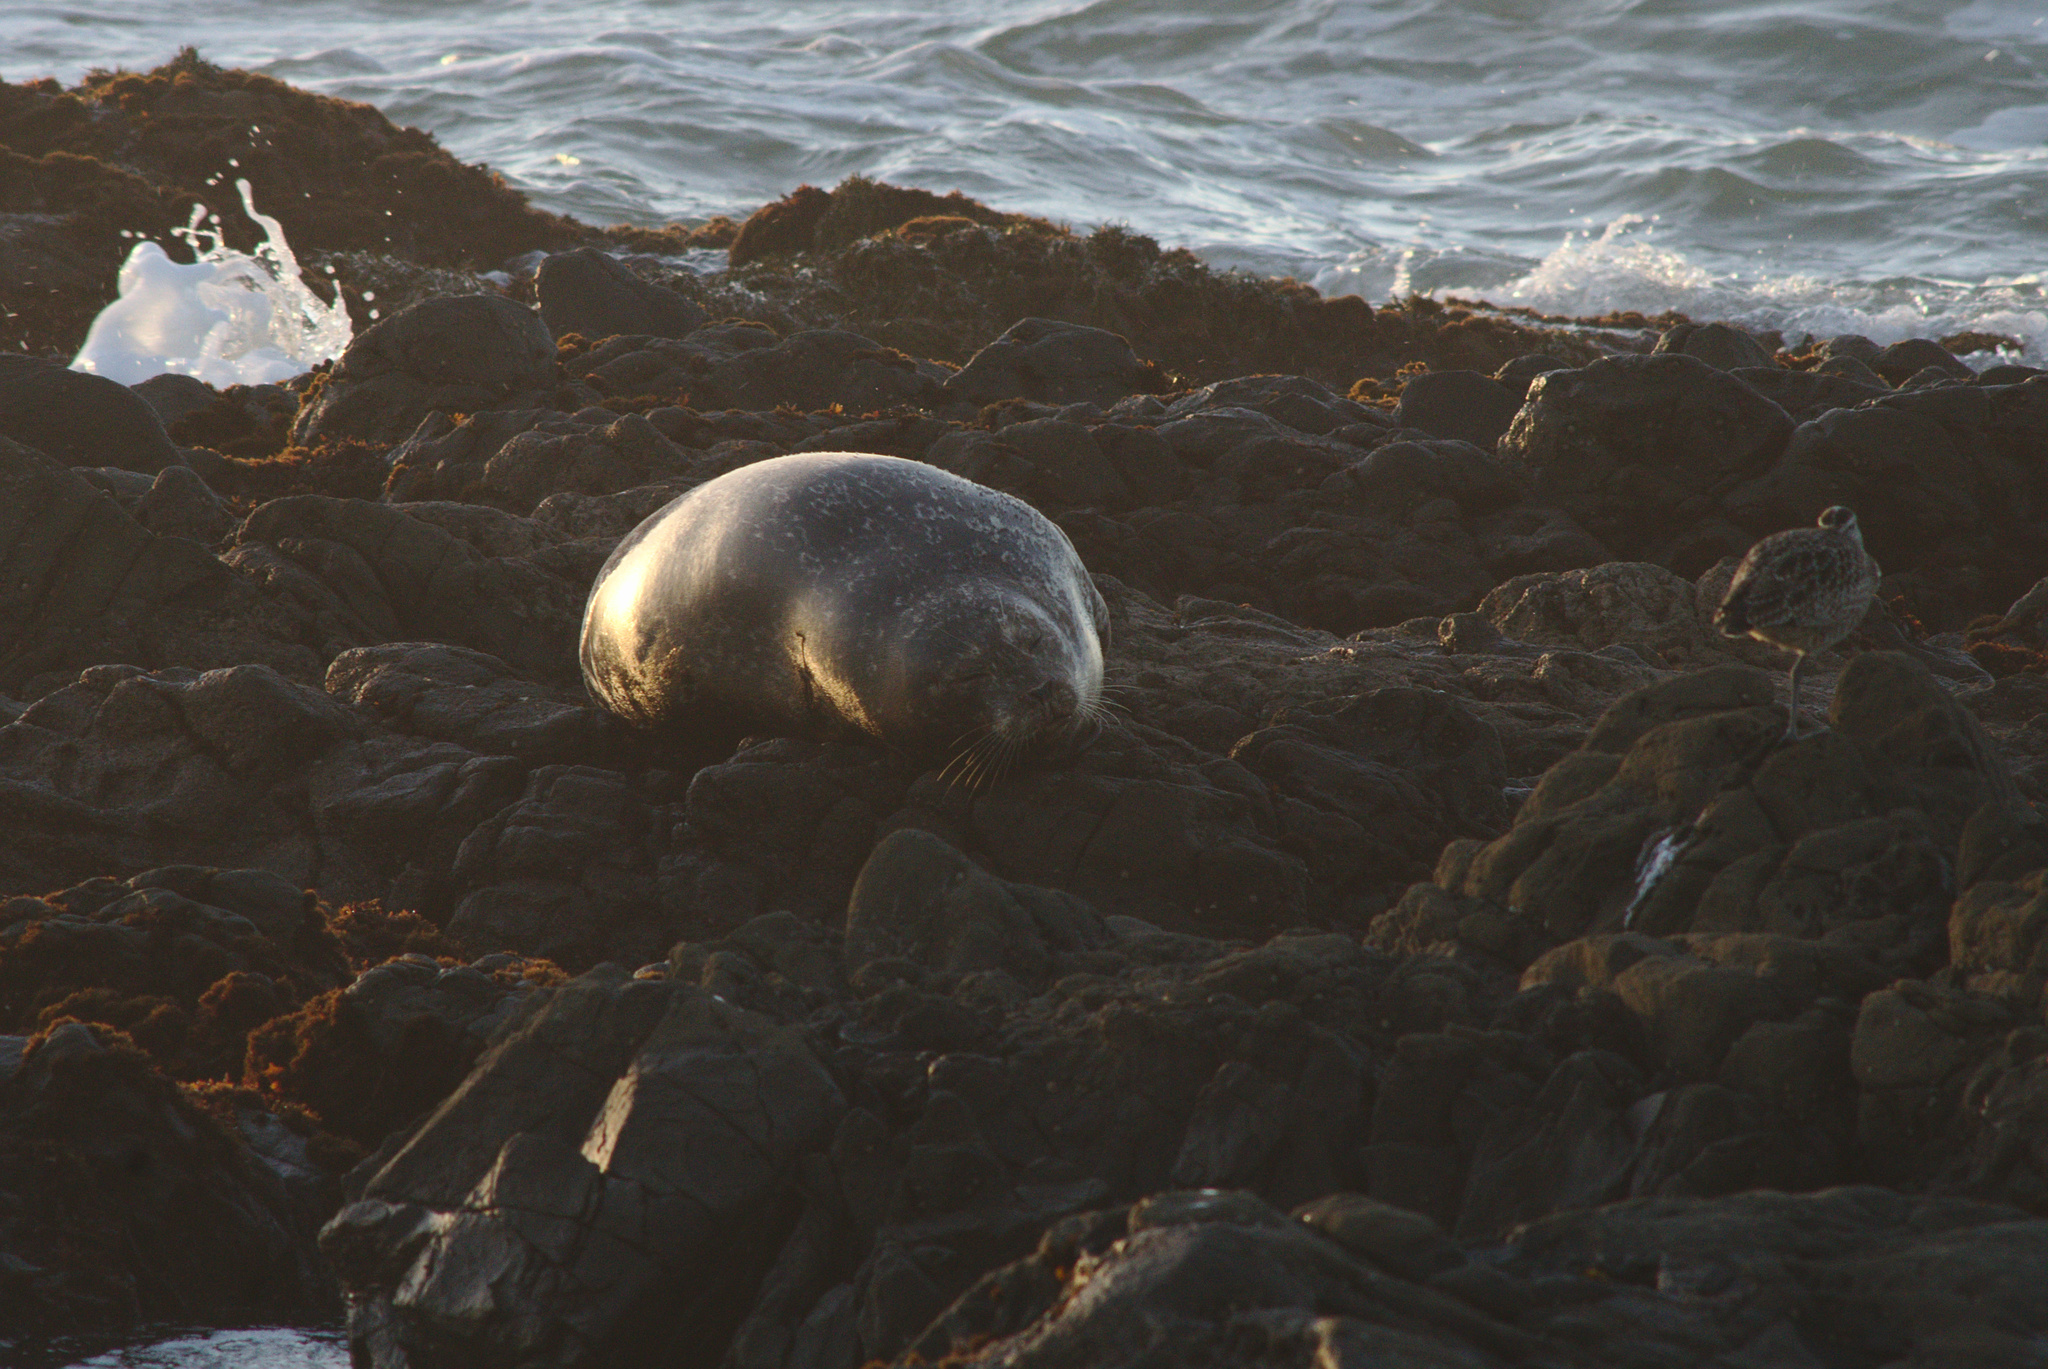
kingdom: Animalia
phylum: Chordata
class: Mammalia
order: Carnivora
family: Phocidae
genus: Phoca
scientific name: Phoca vitulina
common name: Harbor seal
